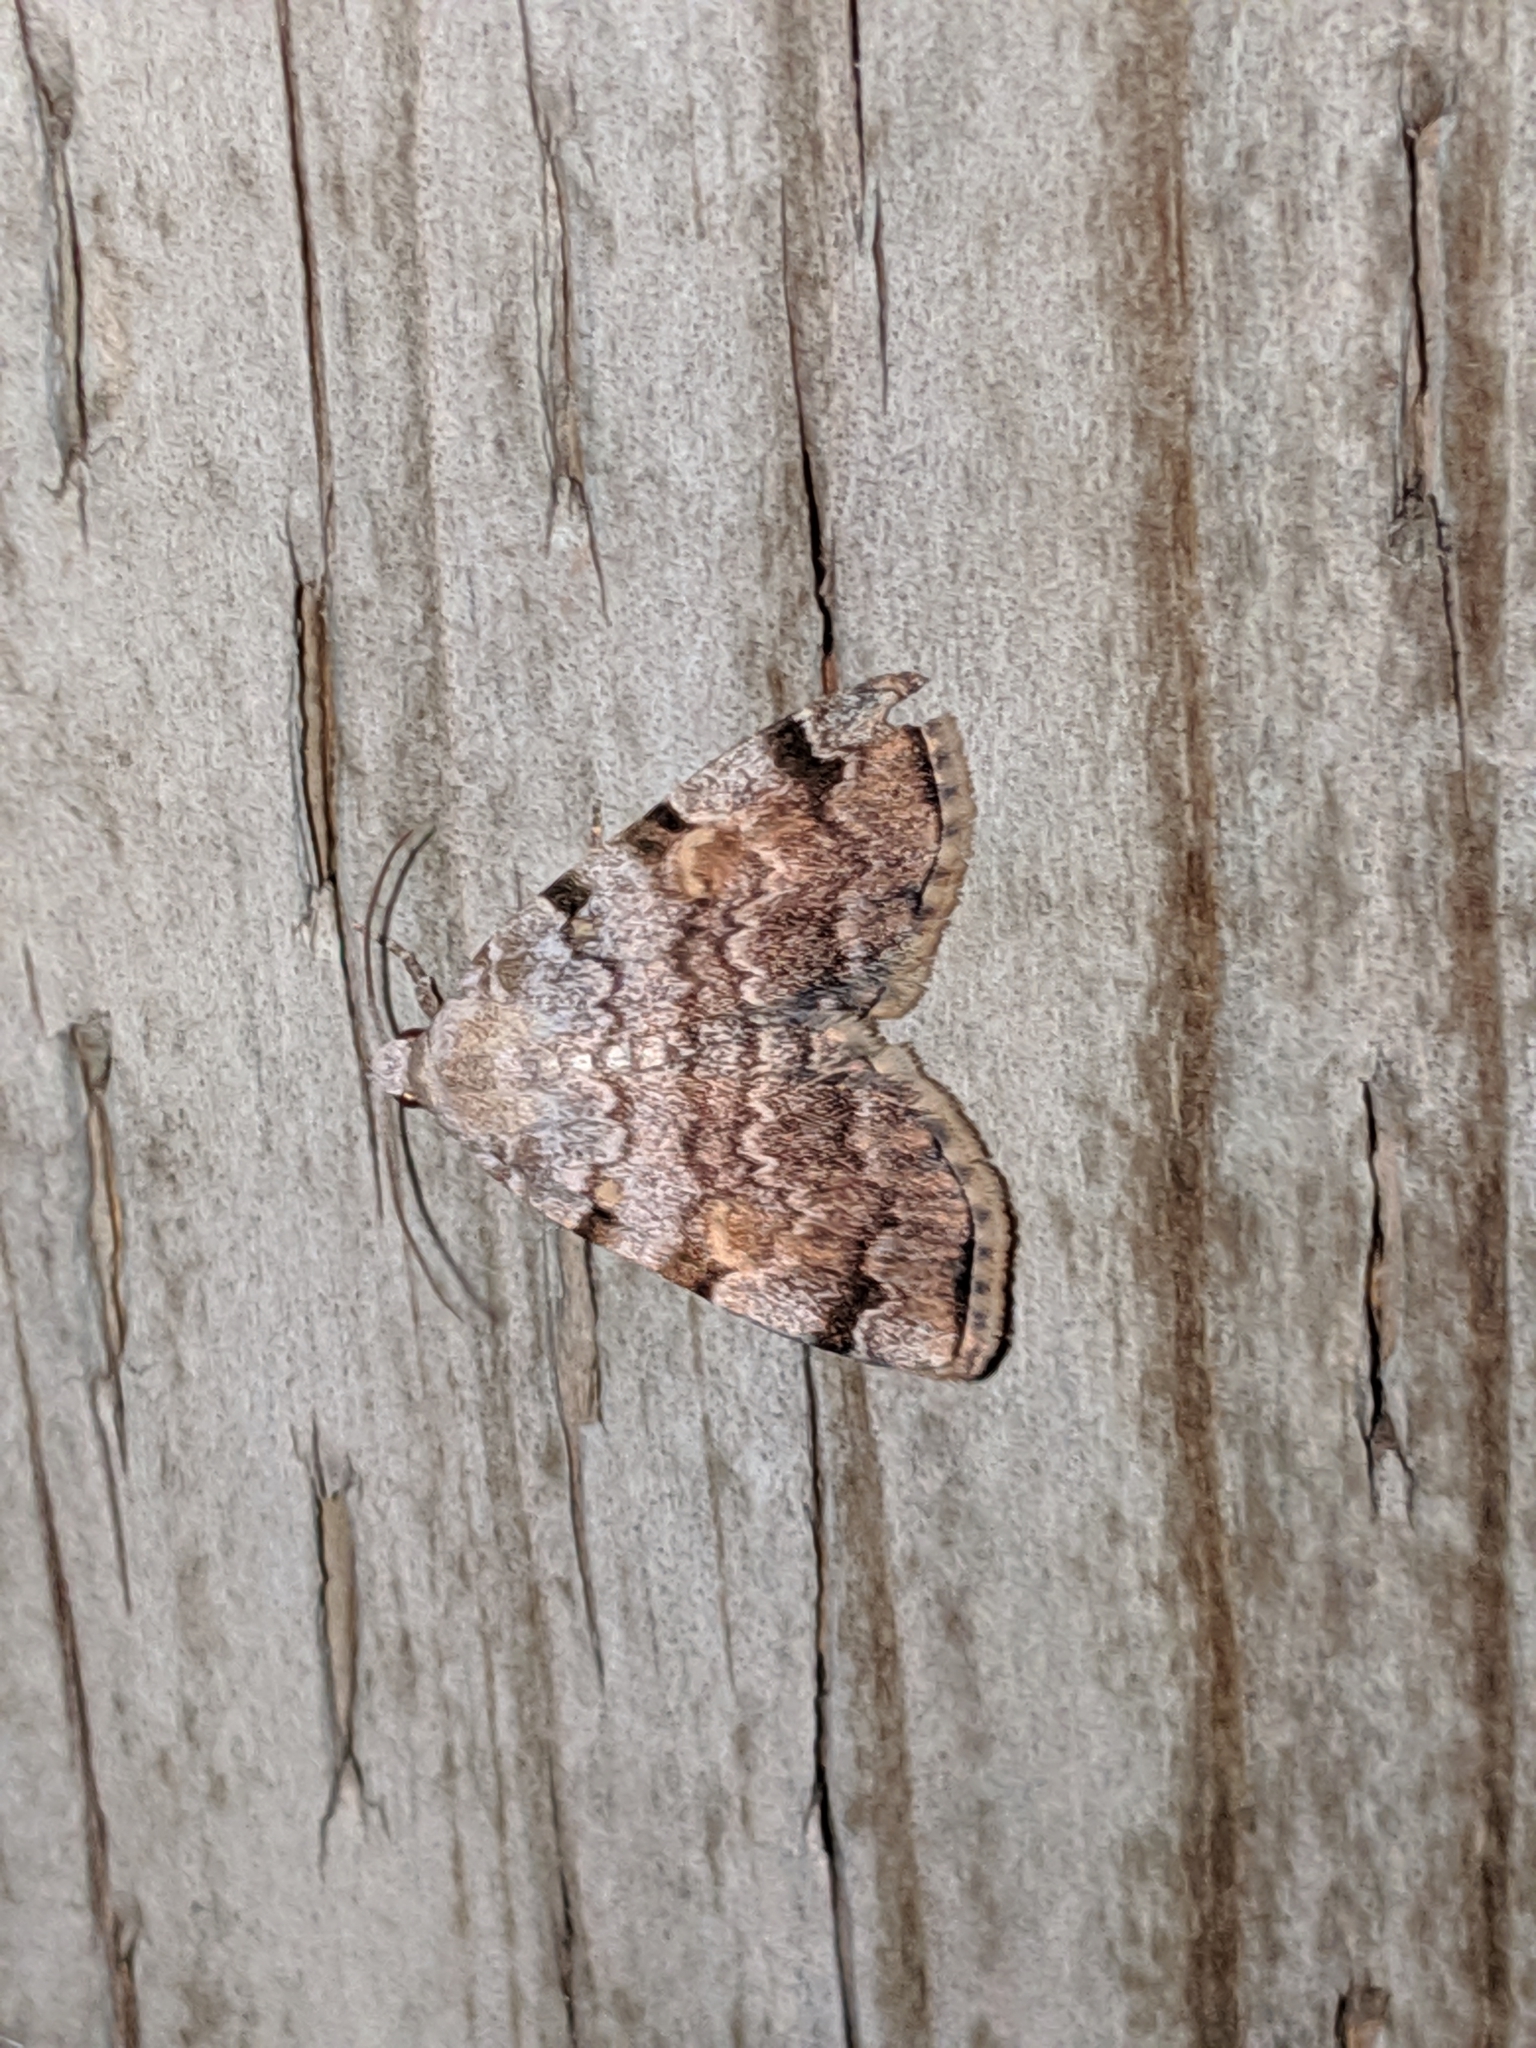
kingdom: Animalia
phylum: Arthropoda
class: Insecta
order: Lepidoptera
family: Erebidae
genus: Idia
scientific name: Idia americalis
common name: American idia moth
